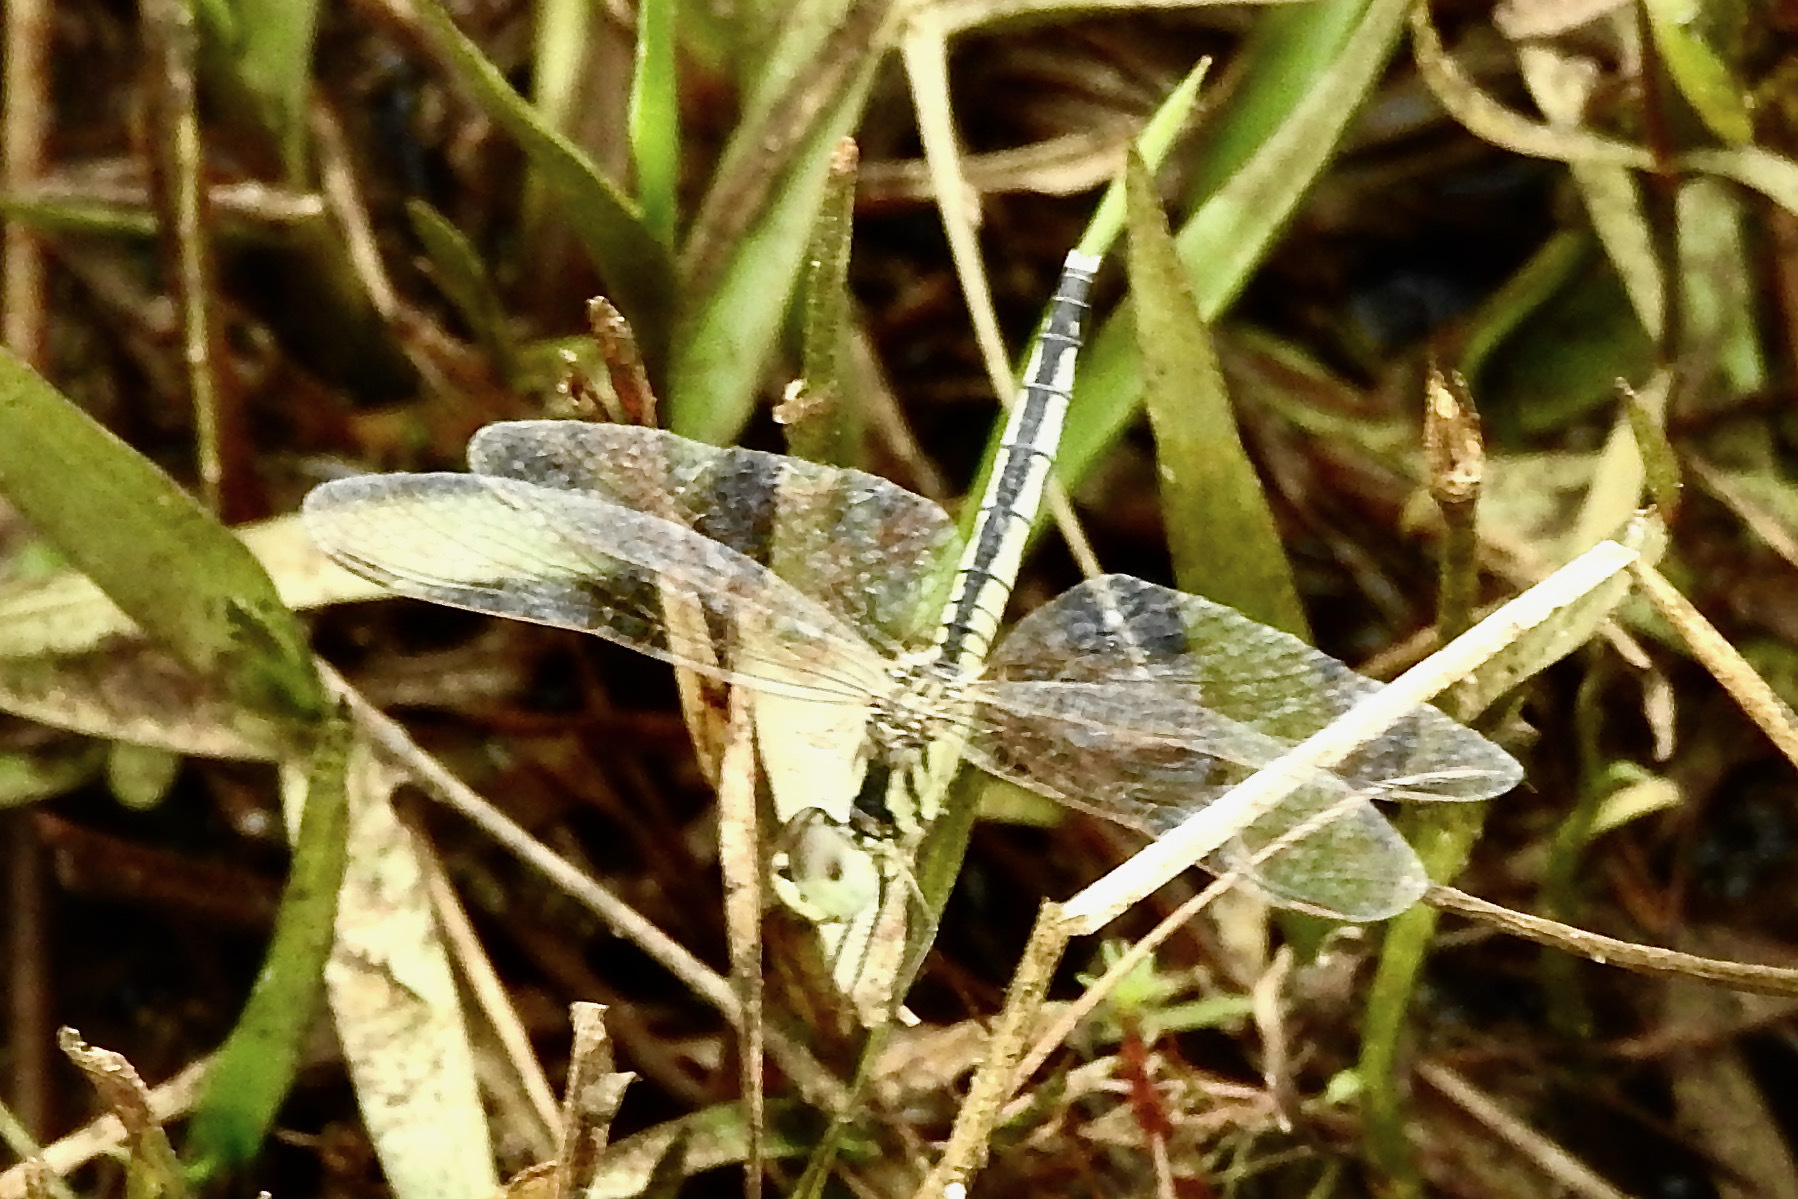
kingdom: Animalia
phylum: Arthropoda
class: Insecta
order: Odonata
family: Libellulidae
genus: Diplacodes
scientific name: Diplacodes nebulosa
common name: Black-tipped percher
